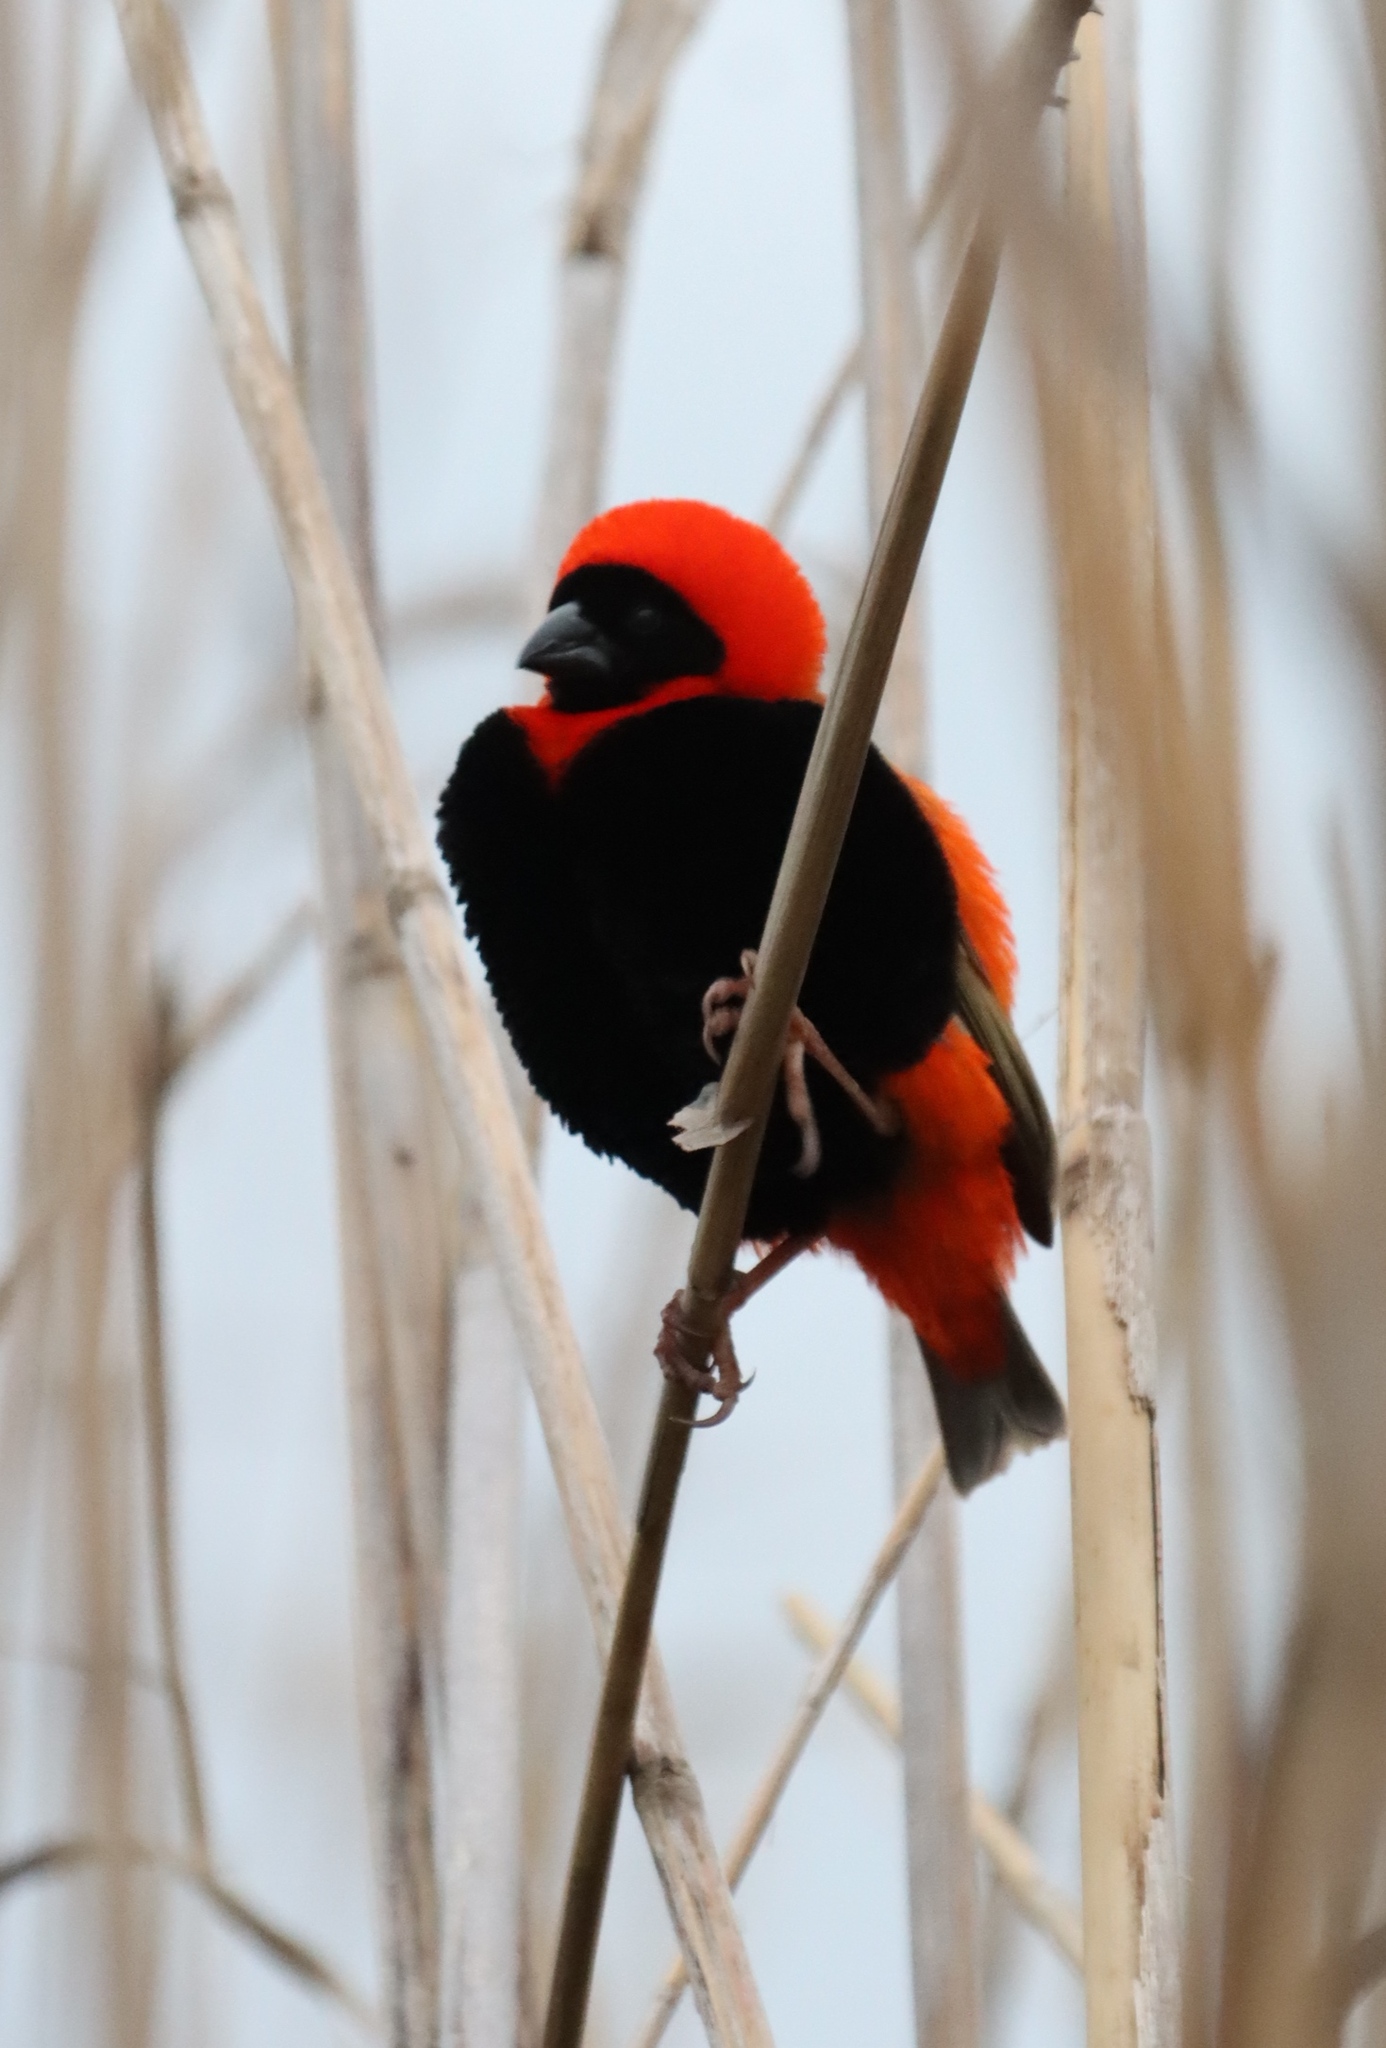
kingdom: Animalia
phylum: Chordata
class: Aves
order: Passeriformes
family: Ploceidae
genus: Euplectes
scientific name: Euplectes orix
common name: Southern red bishop
